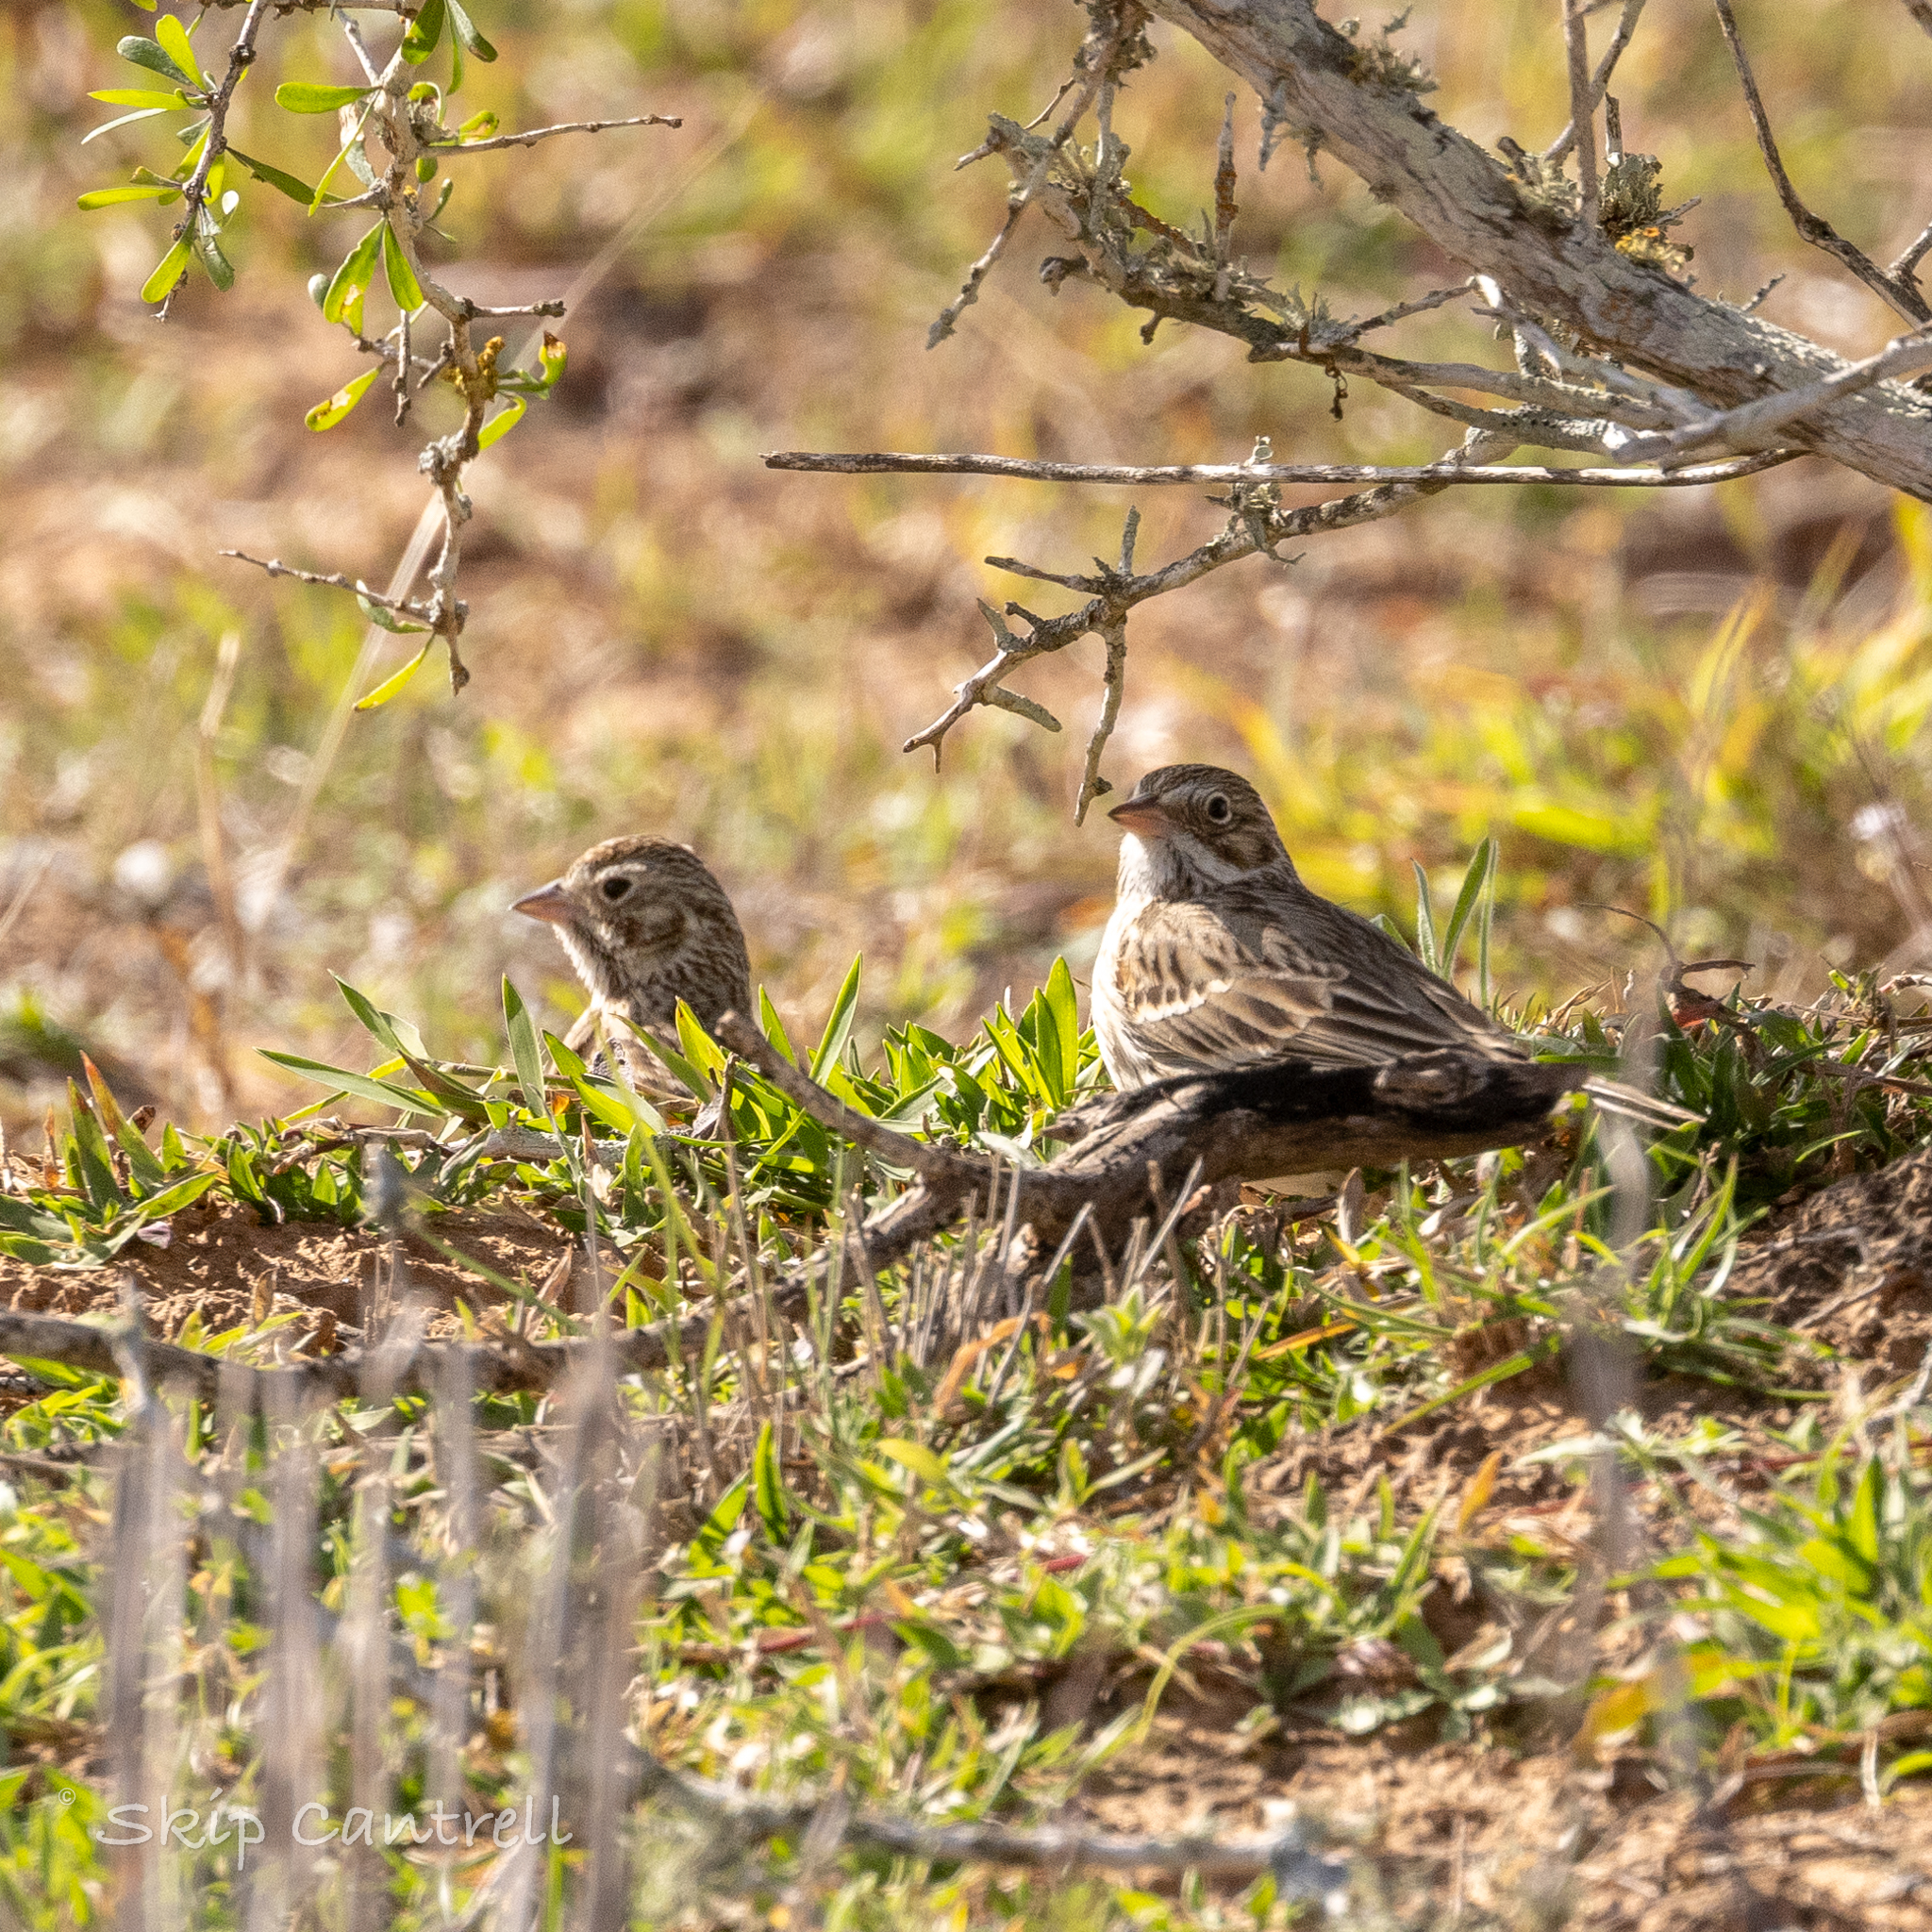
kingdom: Animalia
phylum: Chordata
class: Aves
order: Passeriformes
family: Passerellidae
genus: Pooecetes
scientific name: Pooecetes gramineus
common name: Vesper sparrow
